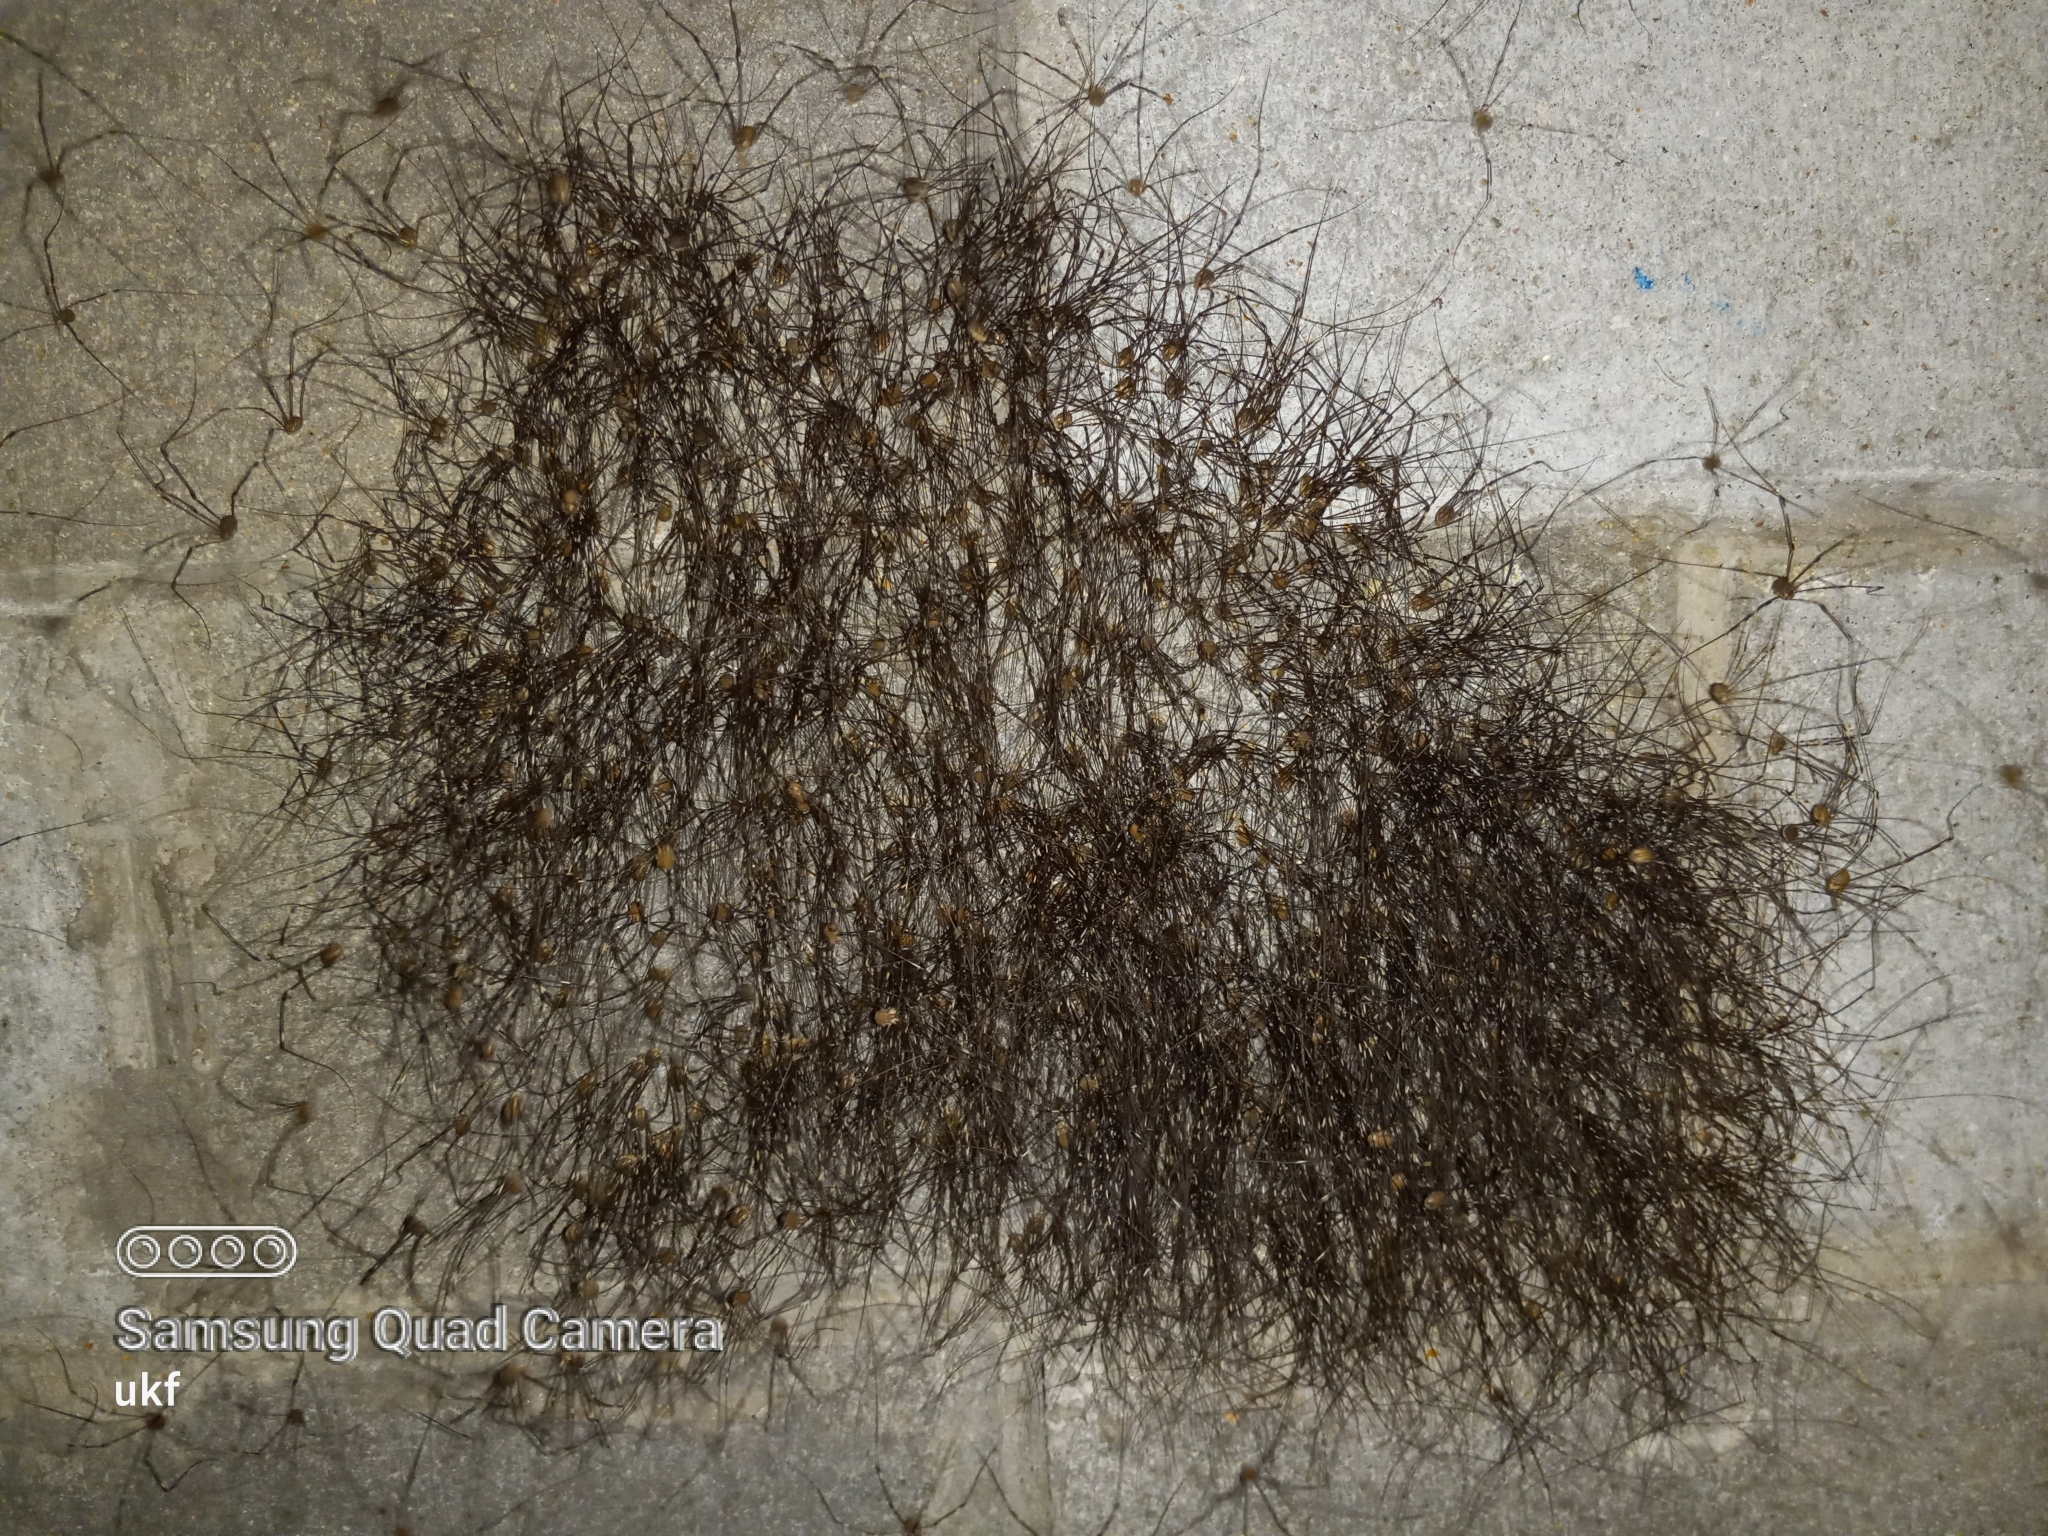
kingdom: Animalia
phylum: Arthropoda
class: Arachnida
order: Opiliones
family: Sclerosomatidae
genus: Leiobunum
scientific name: Leiobunum townsendi
